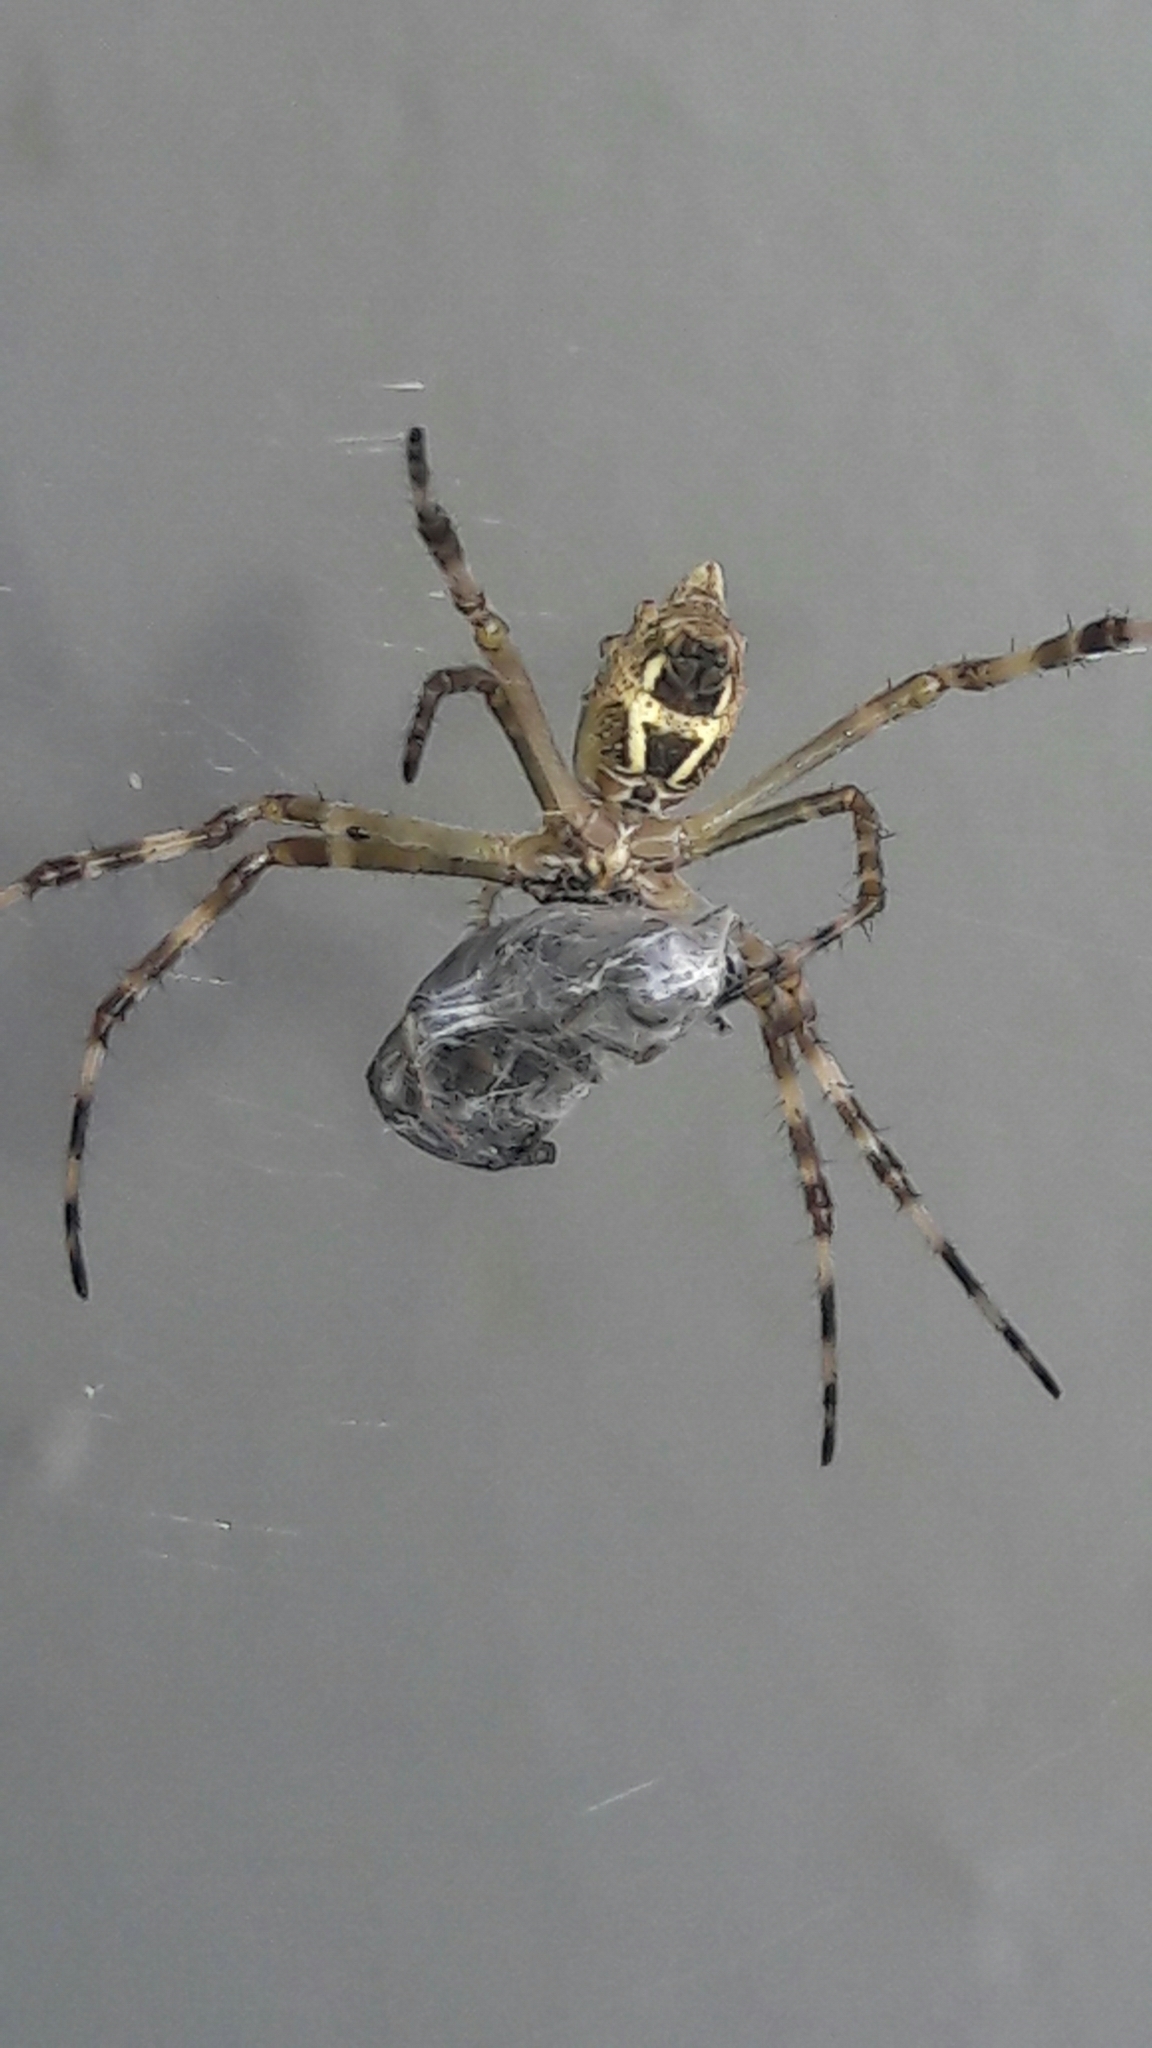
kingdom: Animalia
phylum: Arthropoda
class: Arachnida
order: Araneae
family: Araneidae
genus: Argiope
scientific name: Argiope argentata
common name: Orb weavers
